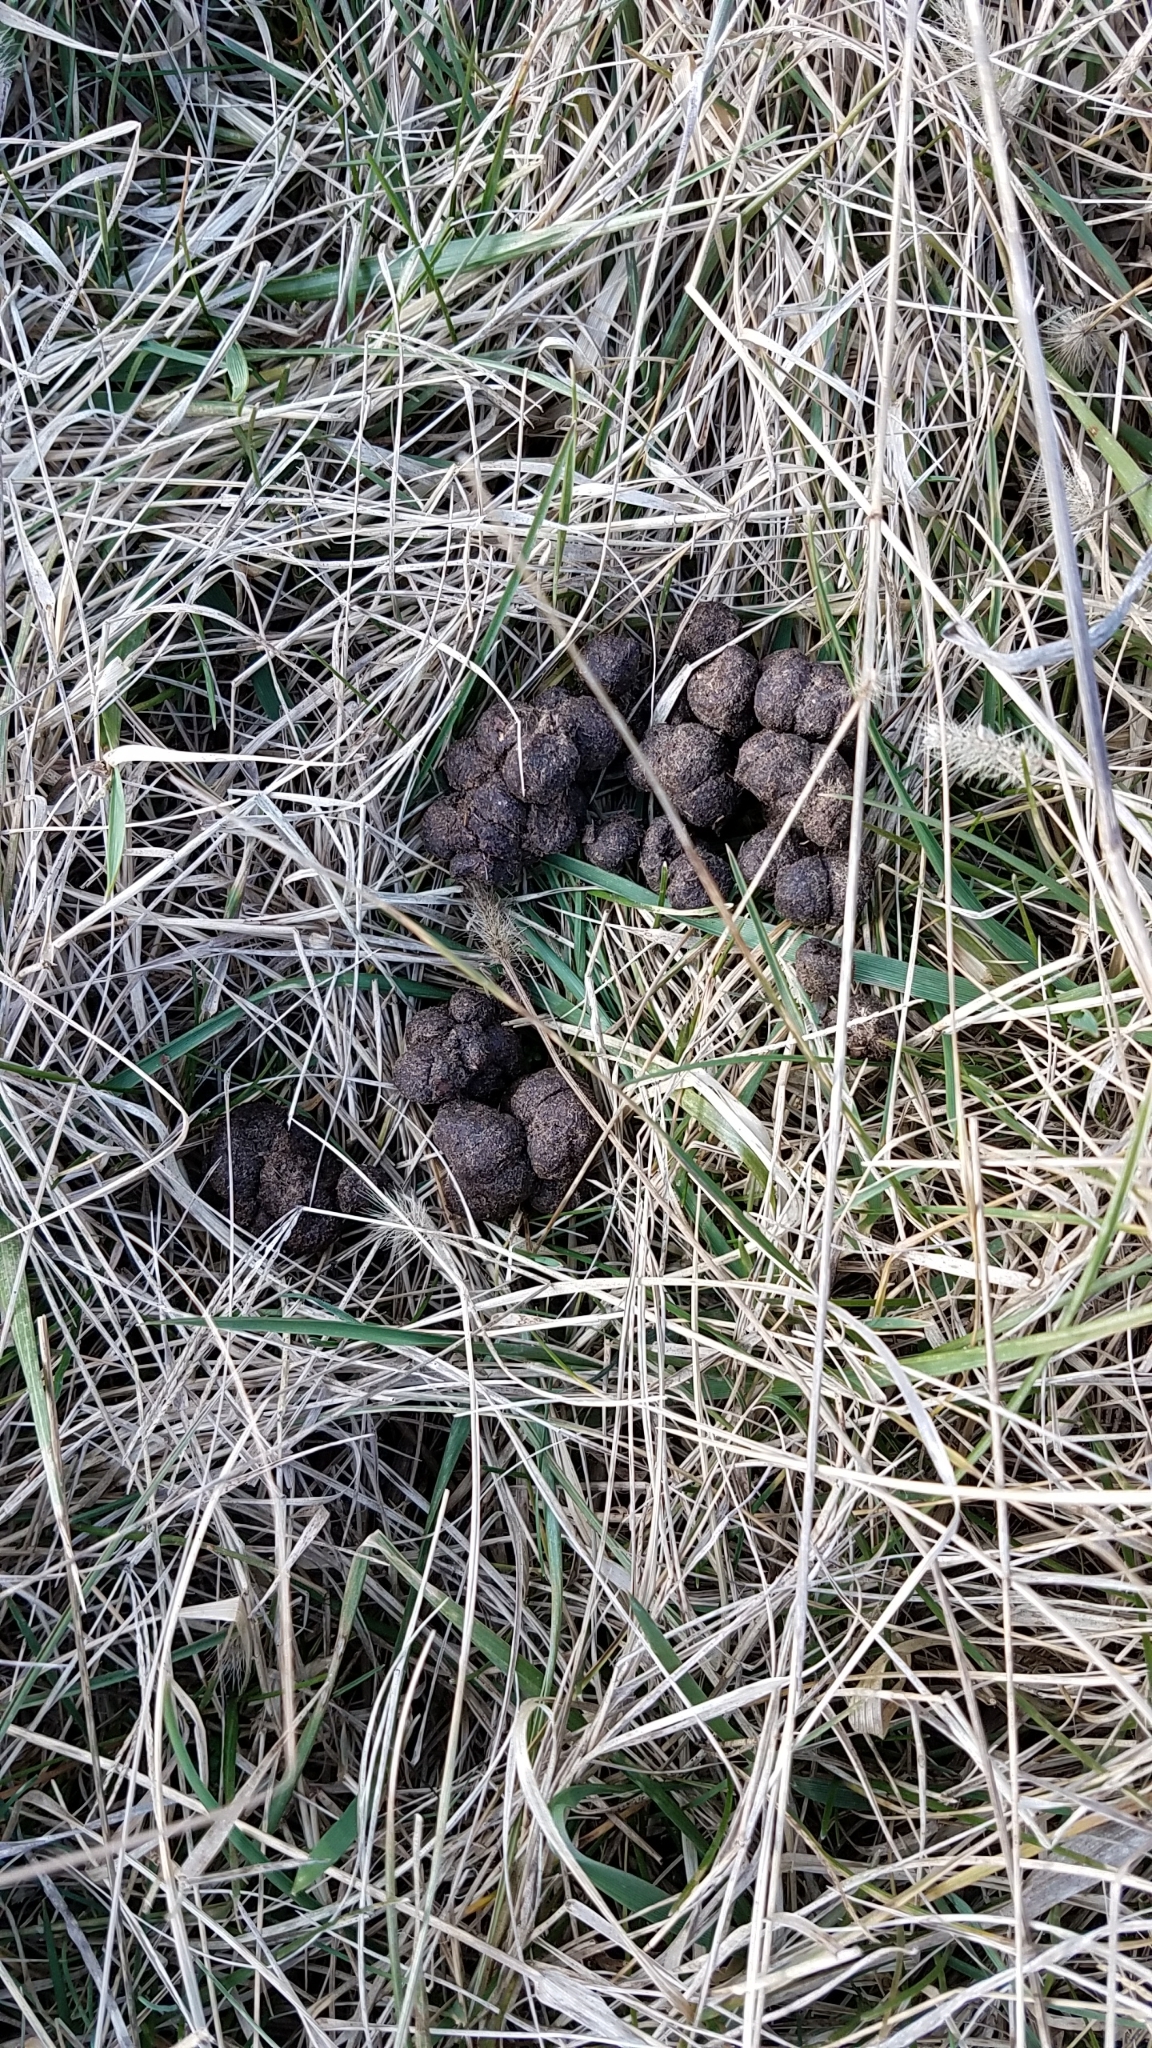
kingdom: Animalia
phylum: Chordata
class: Mammalia
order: Artiodactyla
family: Cervidae
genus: Odocoileus
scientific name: Odocoileus virginianus
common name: White-tailed deer
